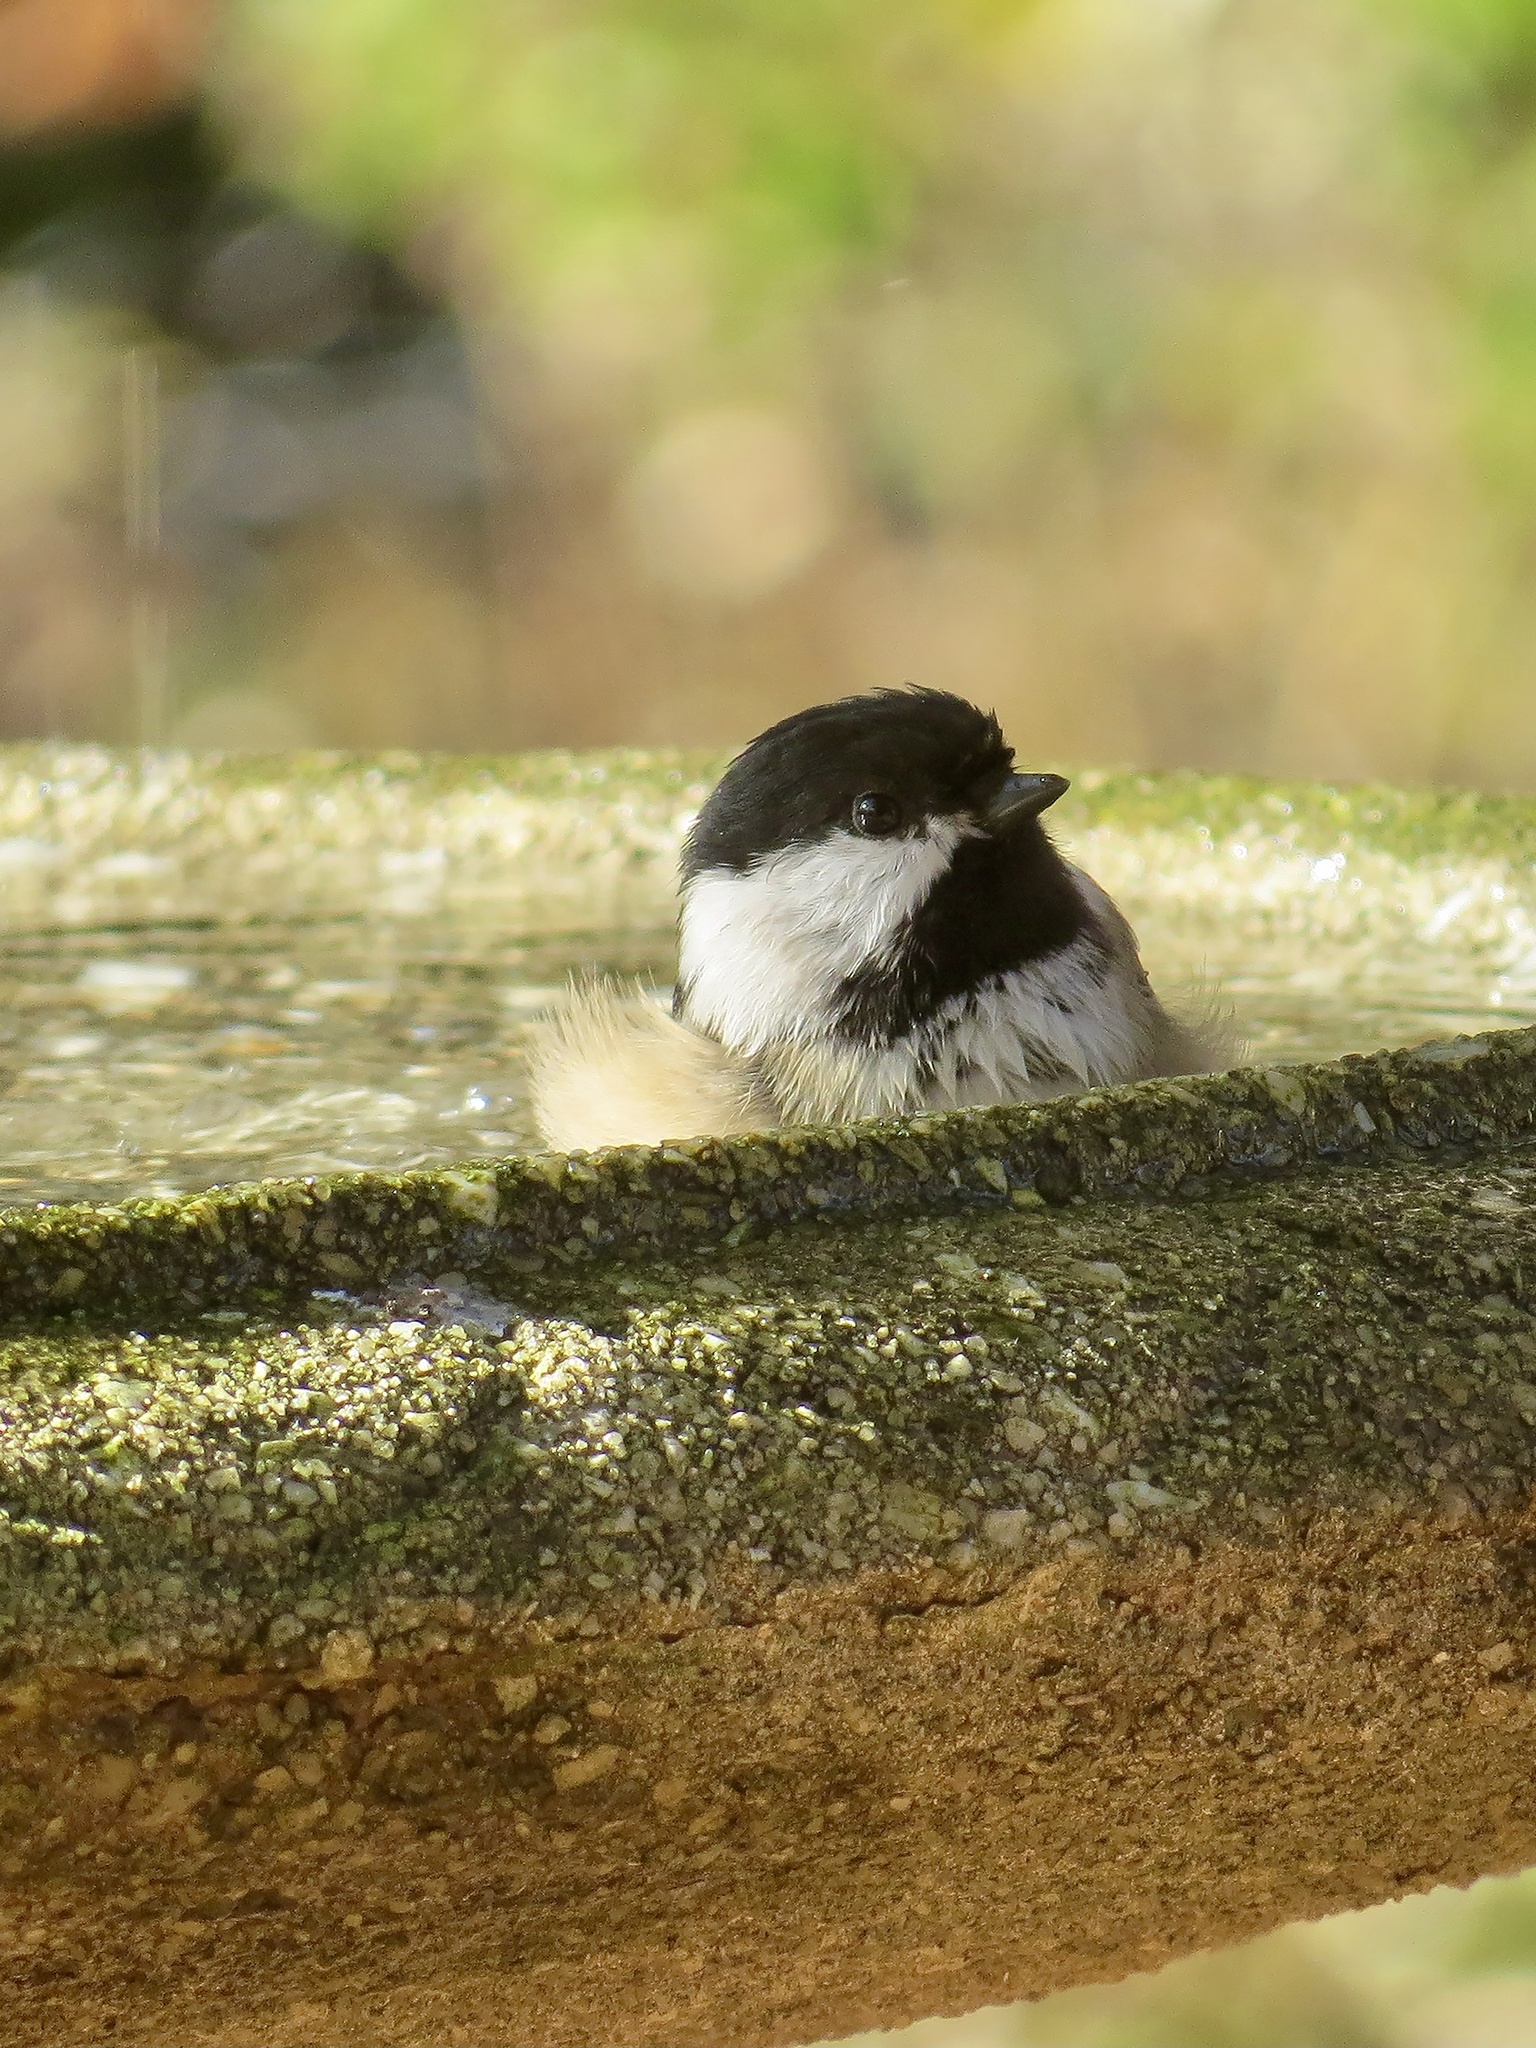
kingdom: Animalia
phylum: Chordata
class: Aves
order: Passeriformes
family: Paridae
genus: Poecile
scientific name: Poecile atricapillus
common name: Black-capped chickadee
